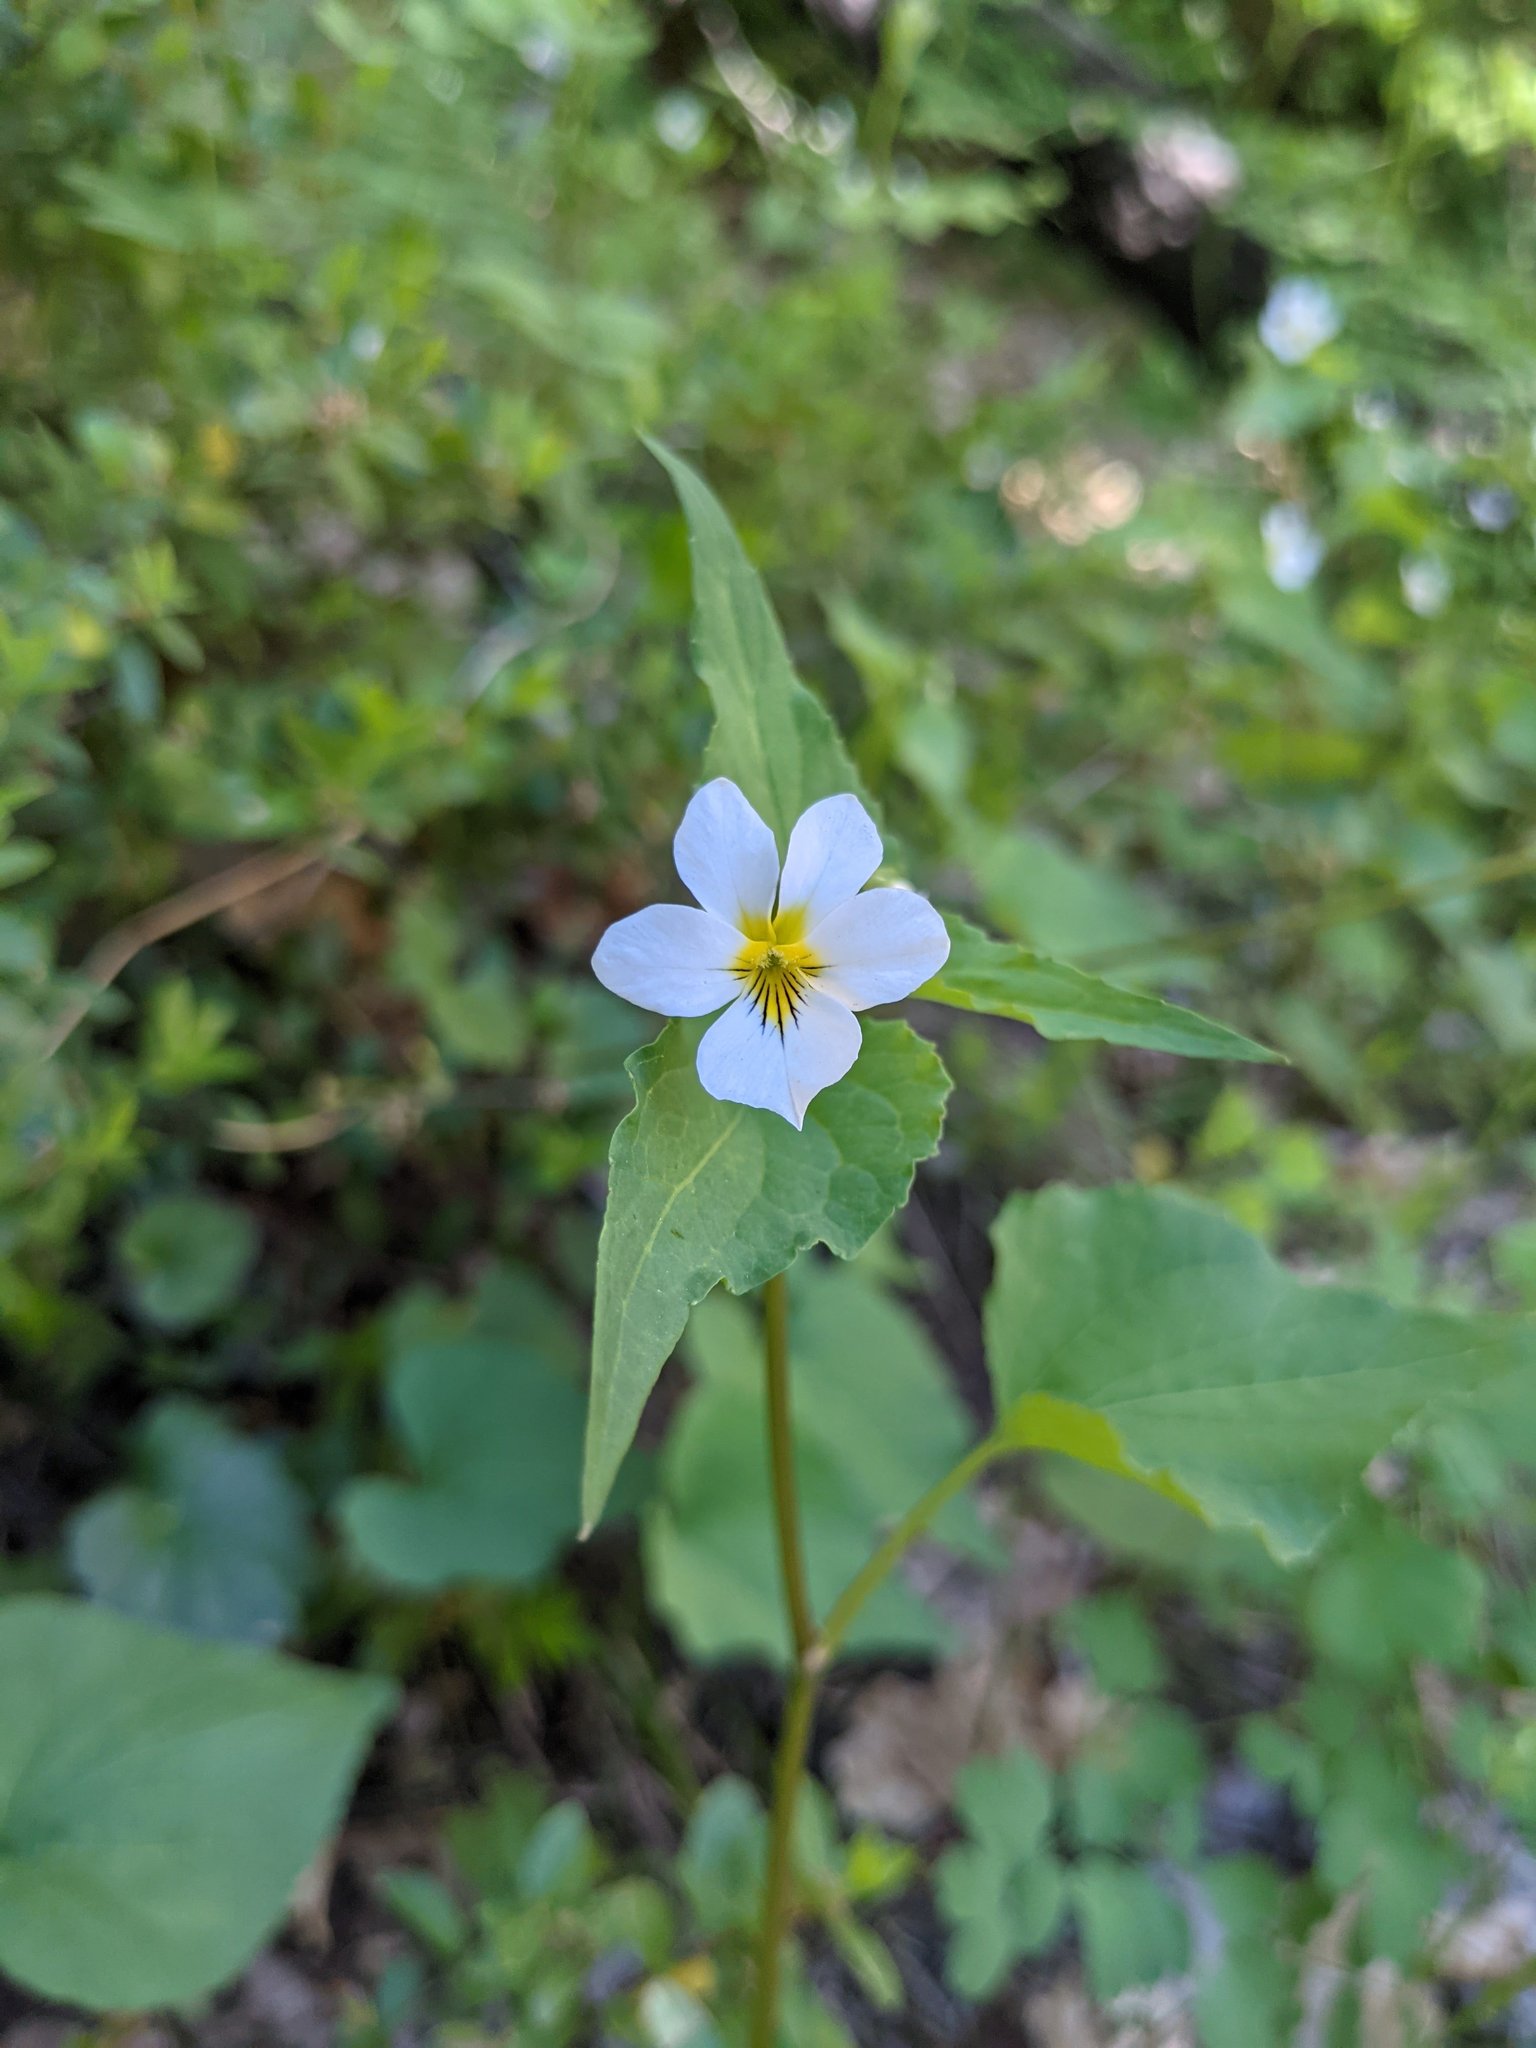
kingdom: Plantae
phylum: Tracheophyta
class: Magnoliopsida
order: Malpighiales
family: Violaceae
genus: Viola
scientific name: Viola canadensis
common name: Canada violet
